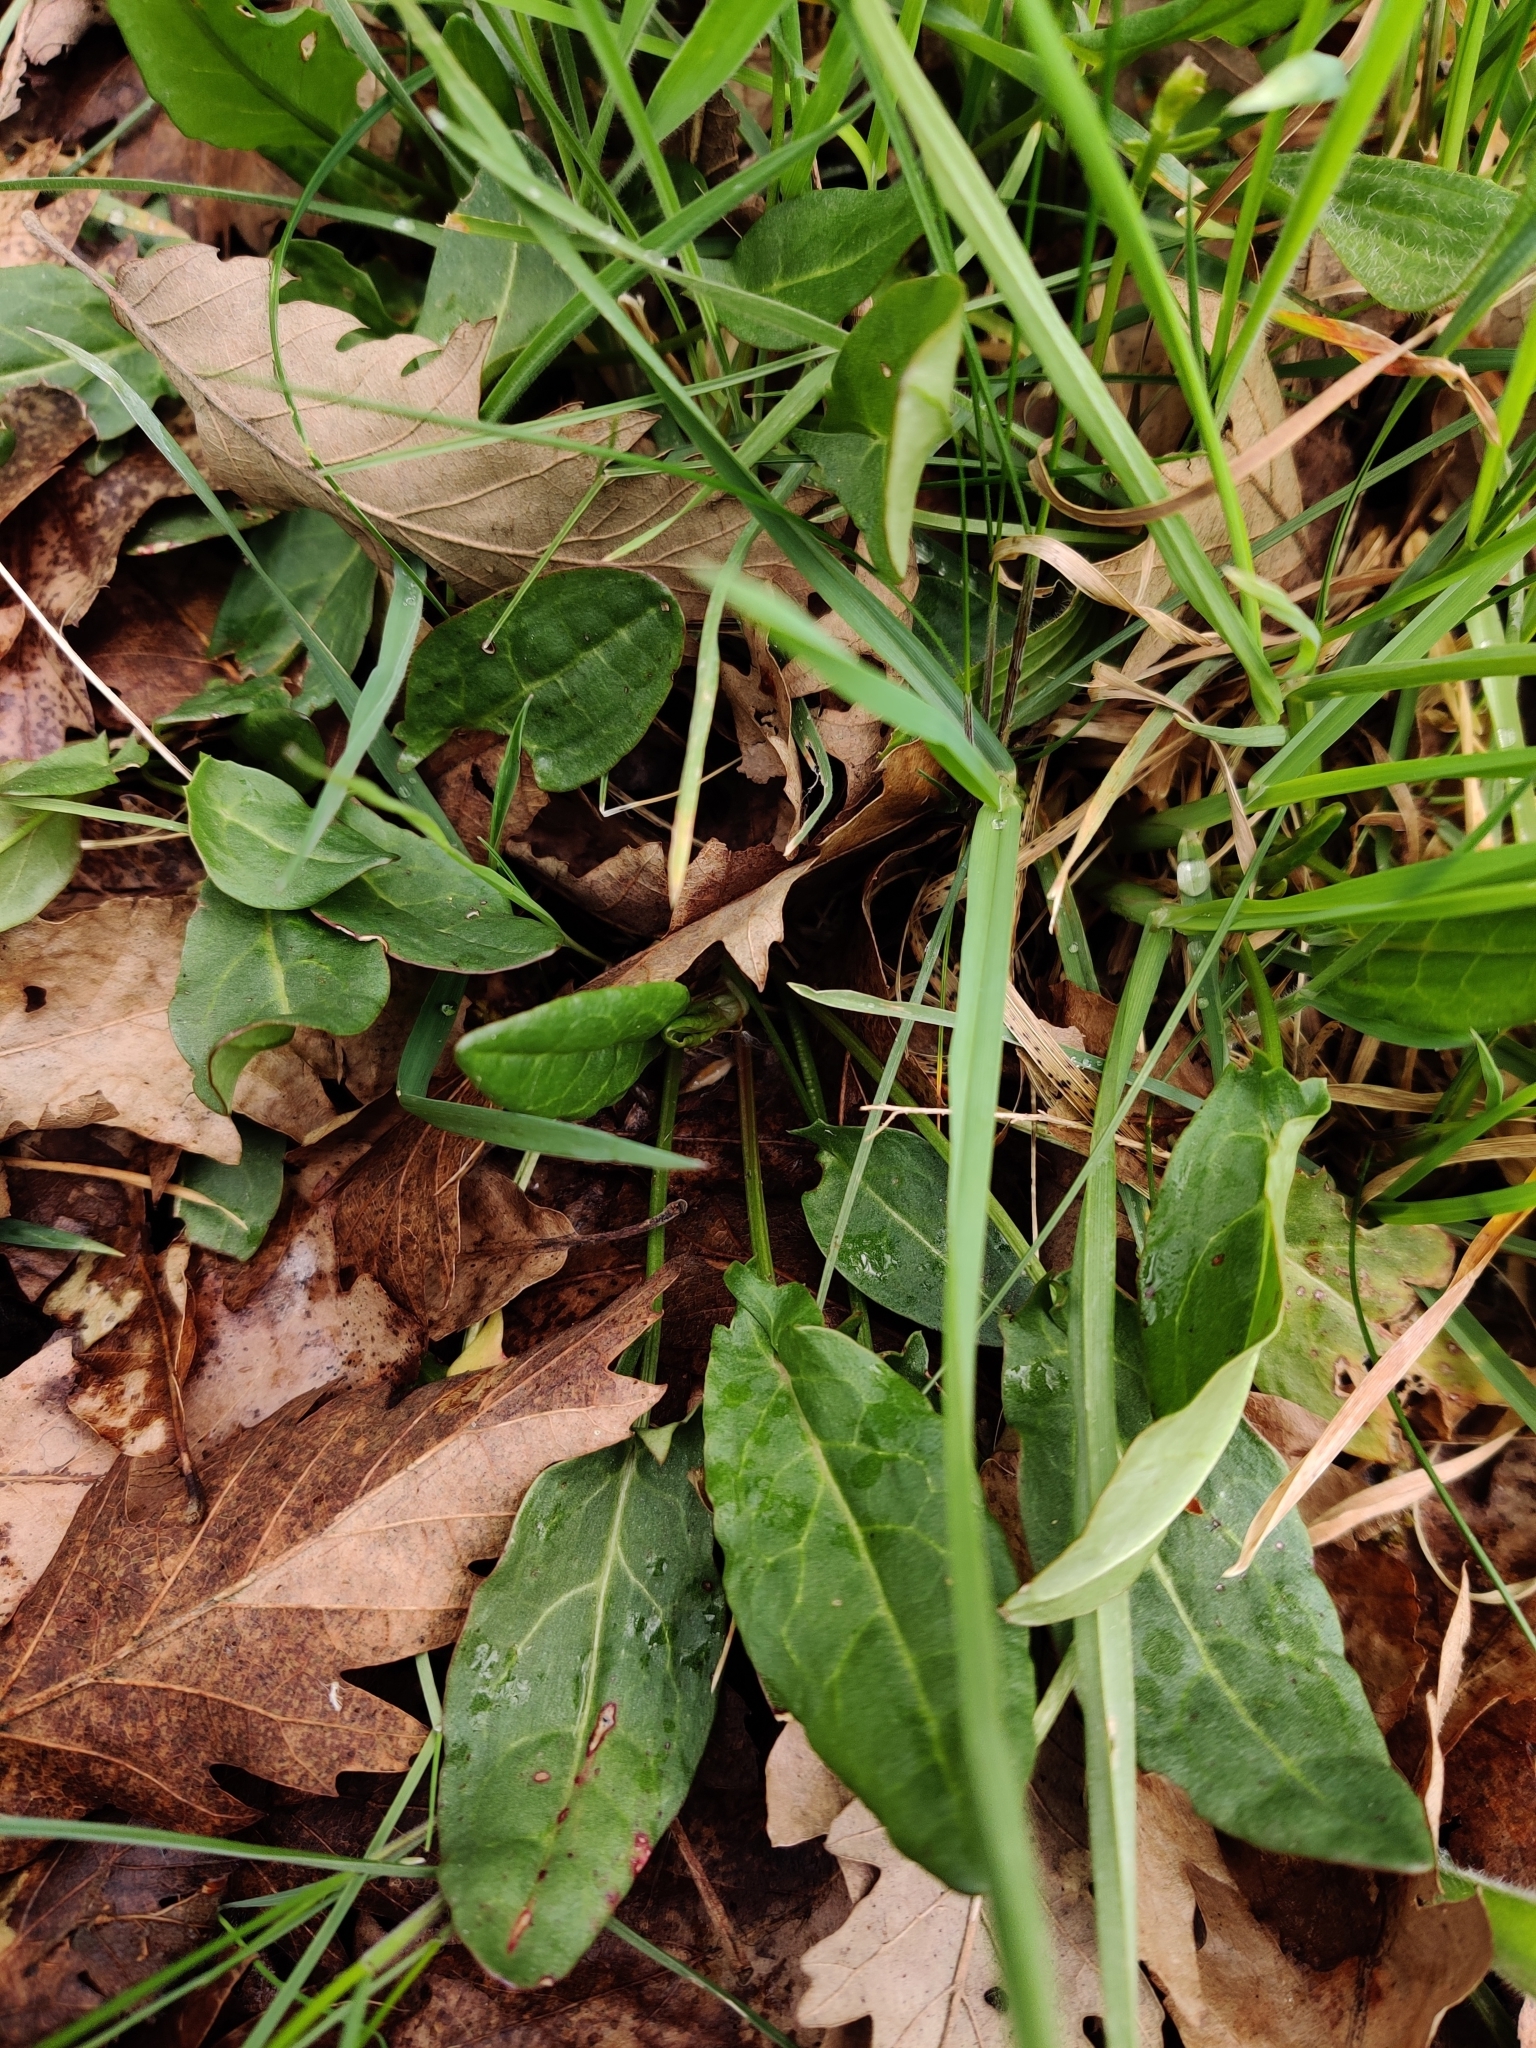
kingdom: Plantae
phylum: Tracheophyta
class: Magnoliopsida
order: Caryophyllales
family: Polygonaceae
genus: Rumex
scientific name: Rumex acetosa
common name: Garden sorrel
